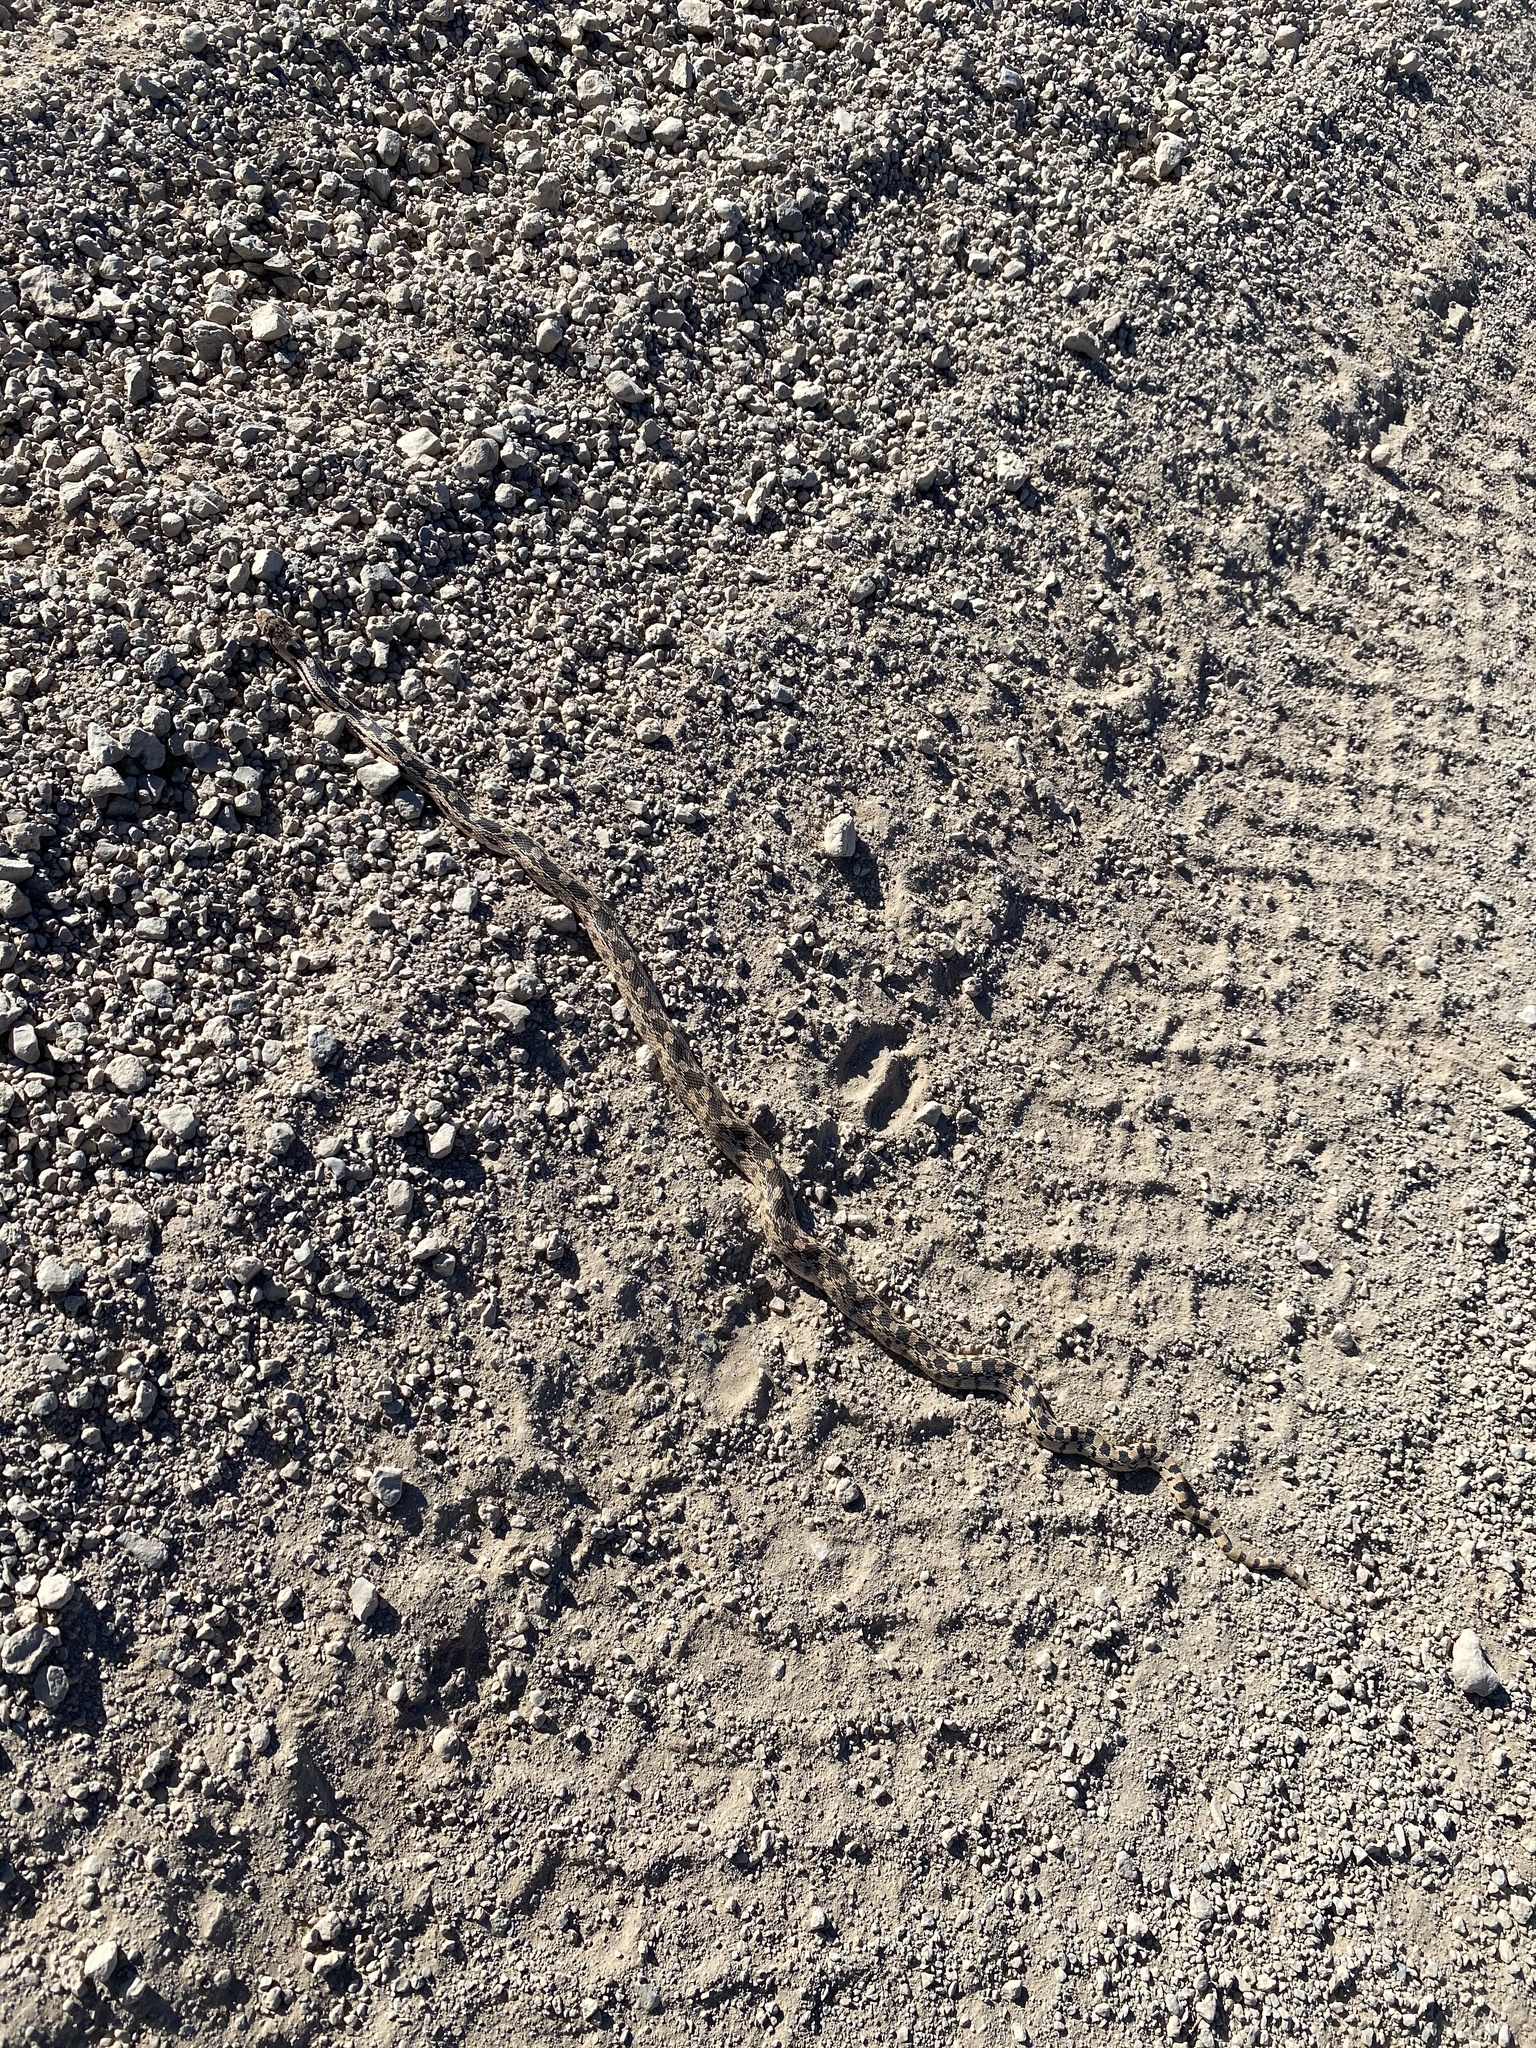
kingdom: Animalia
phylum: Chordata
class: Squamata
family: Colubridae
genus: Pituophis
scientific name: Pituophis catenifer
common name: Gopher snake
